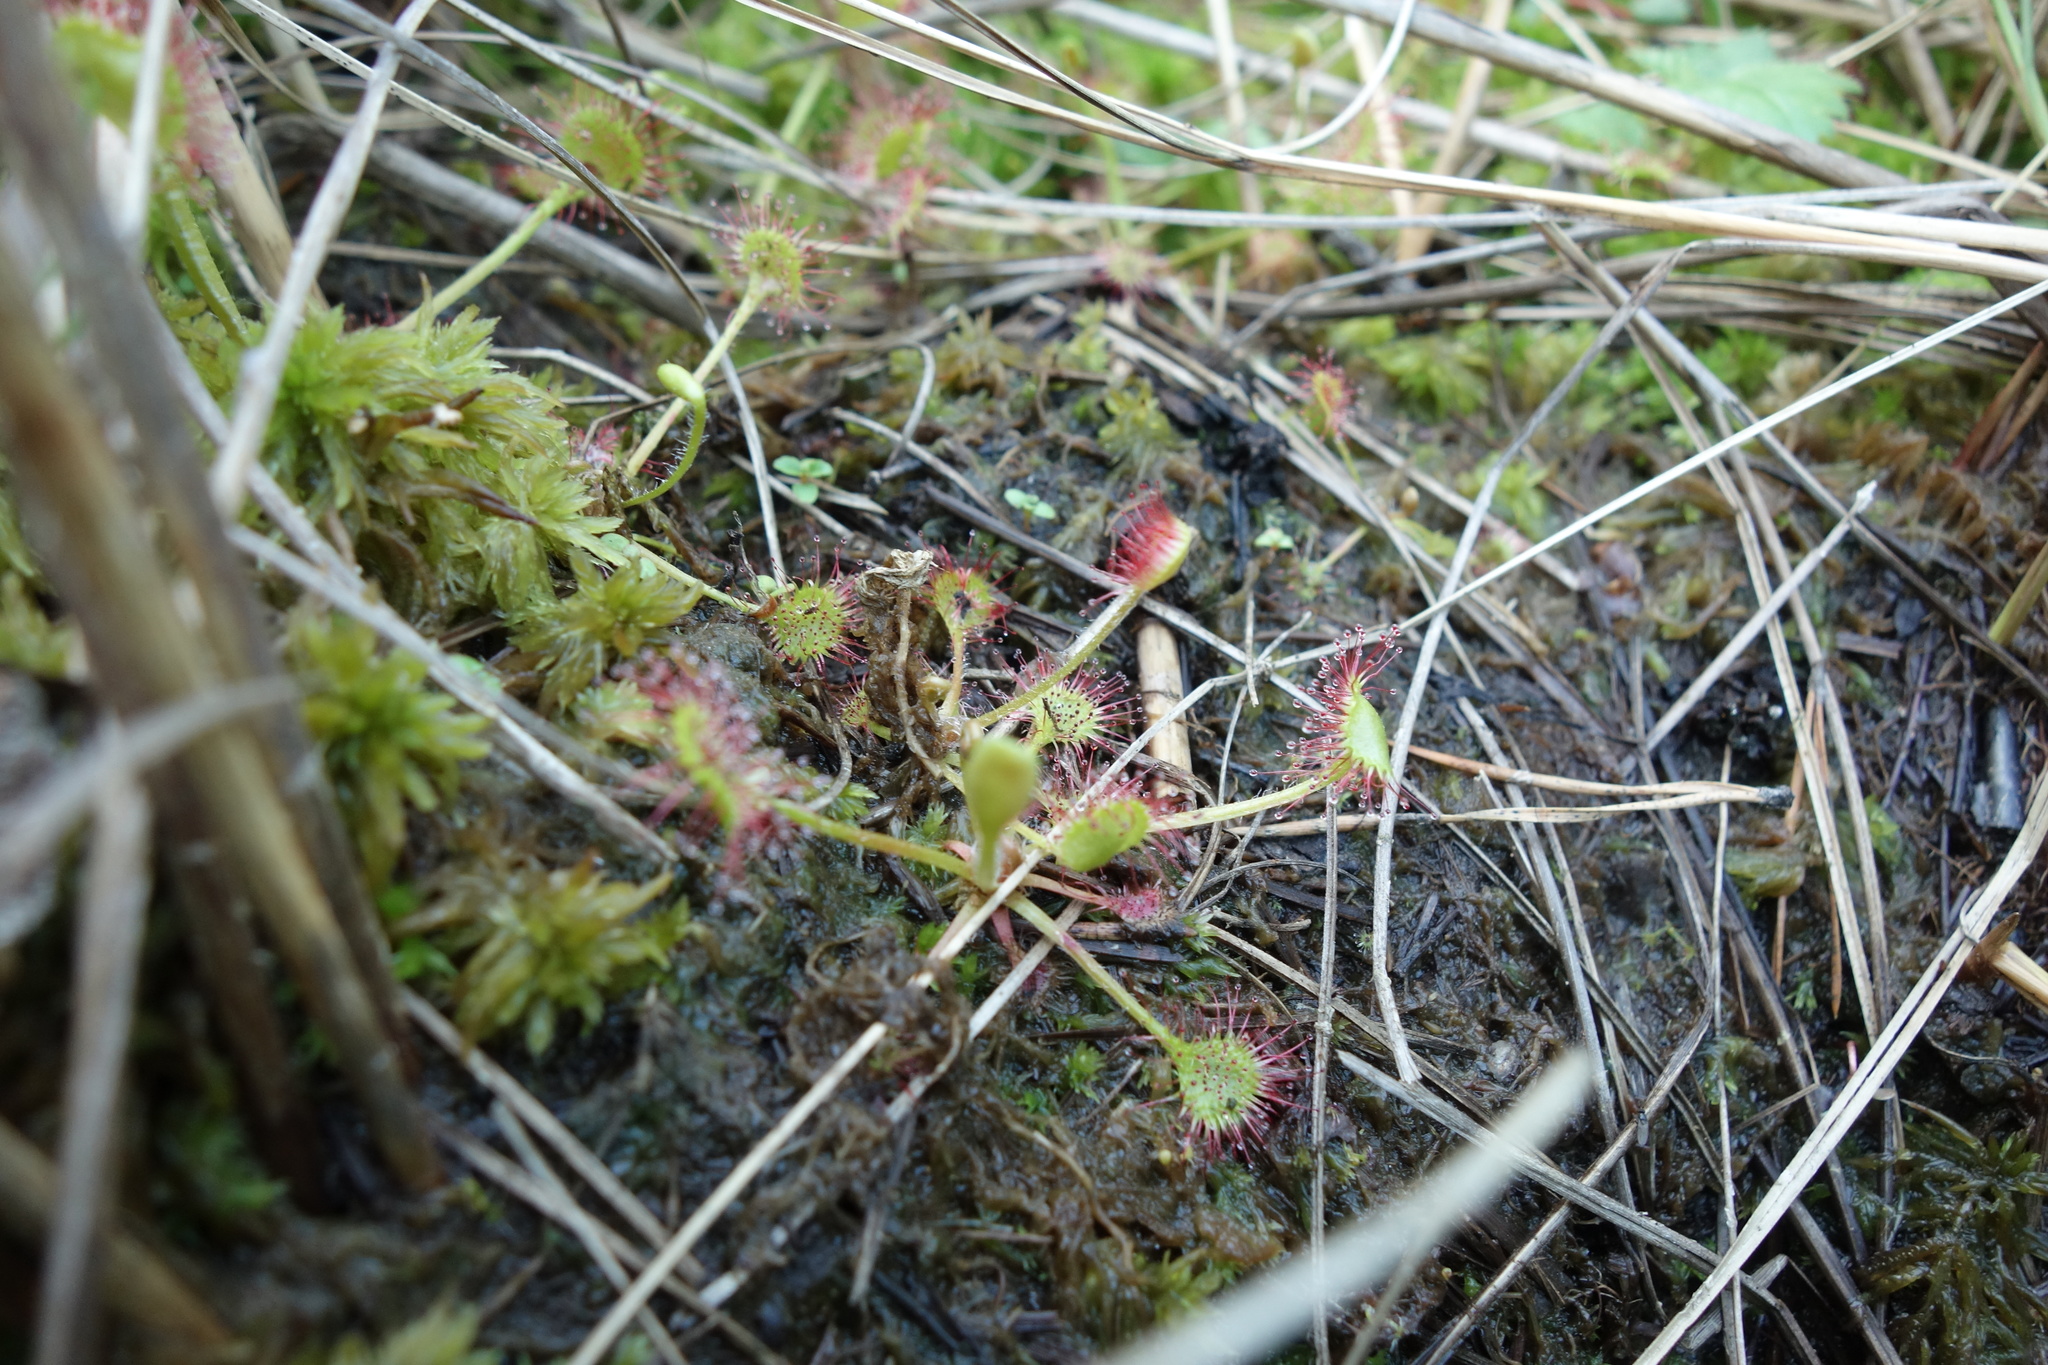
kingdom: Plantae
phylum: Tracheophyta
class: Magnoliopsida
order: Caryophyllales
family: Droseraceae
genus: Drosera
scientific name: Drosera rotundifolia
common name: Round-leaved sundew
